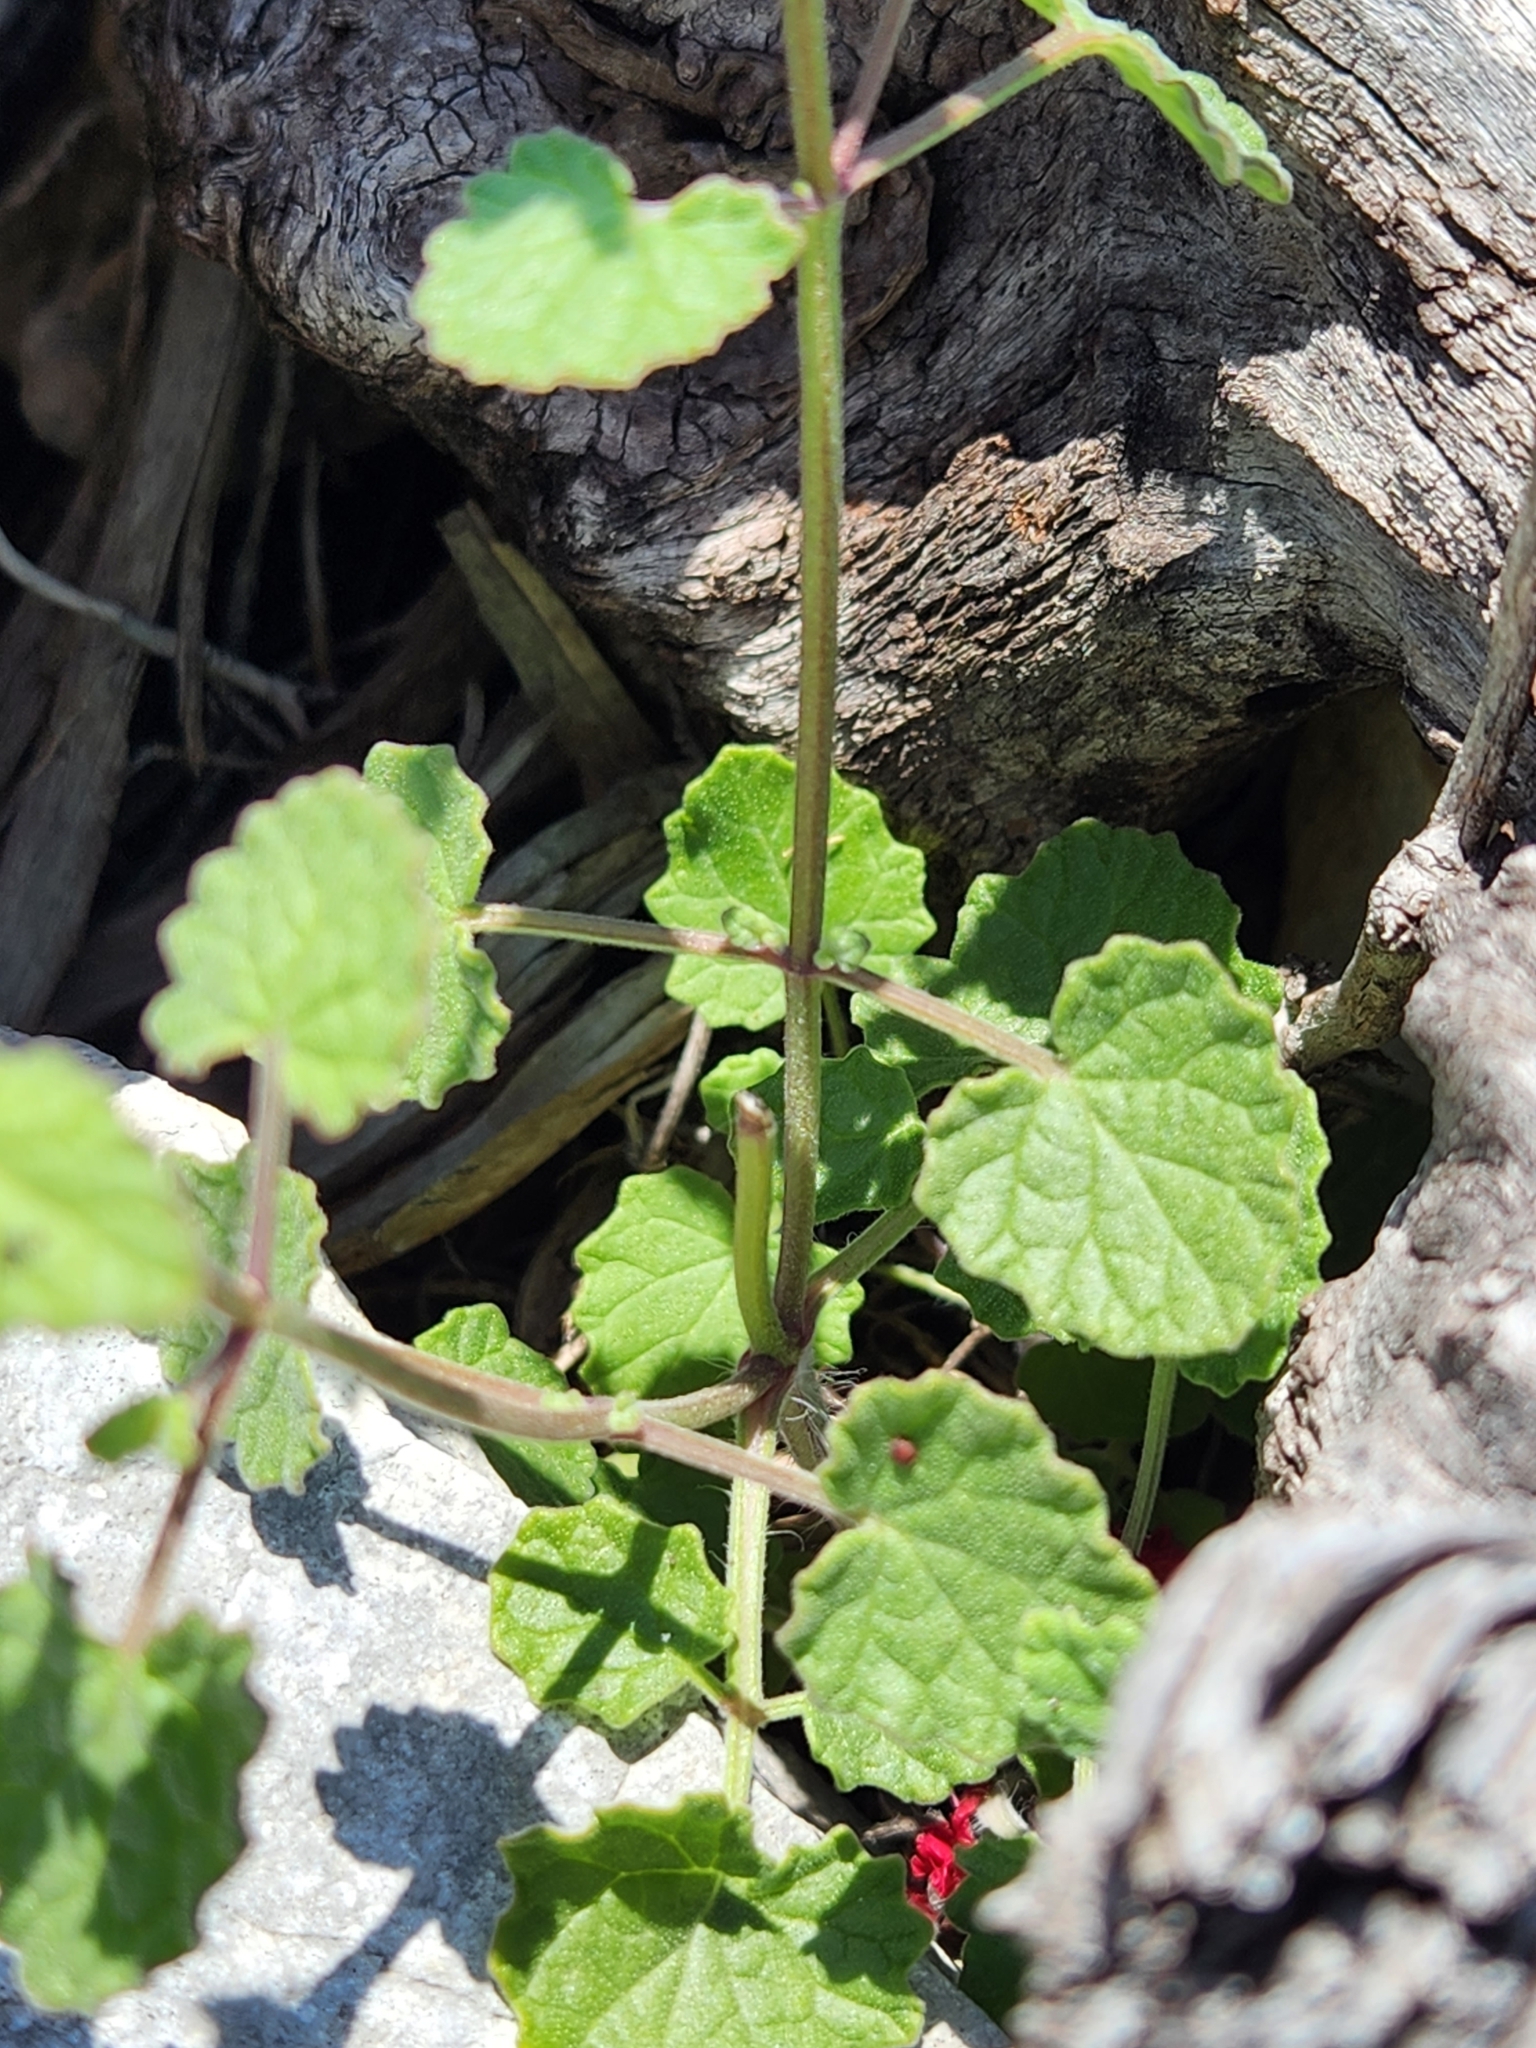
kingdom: Plantae
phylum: Tracheophyta
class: Magnoliopsida
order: Lamiales
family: Lamiaceae
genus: Salvia
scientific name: Salvia roemeriana
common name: Cedar sage
